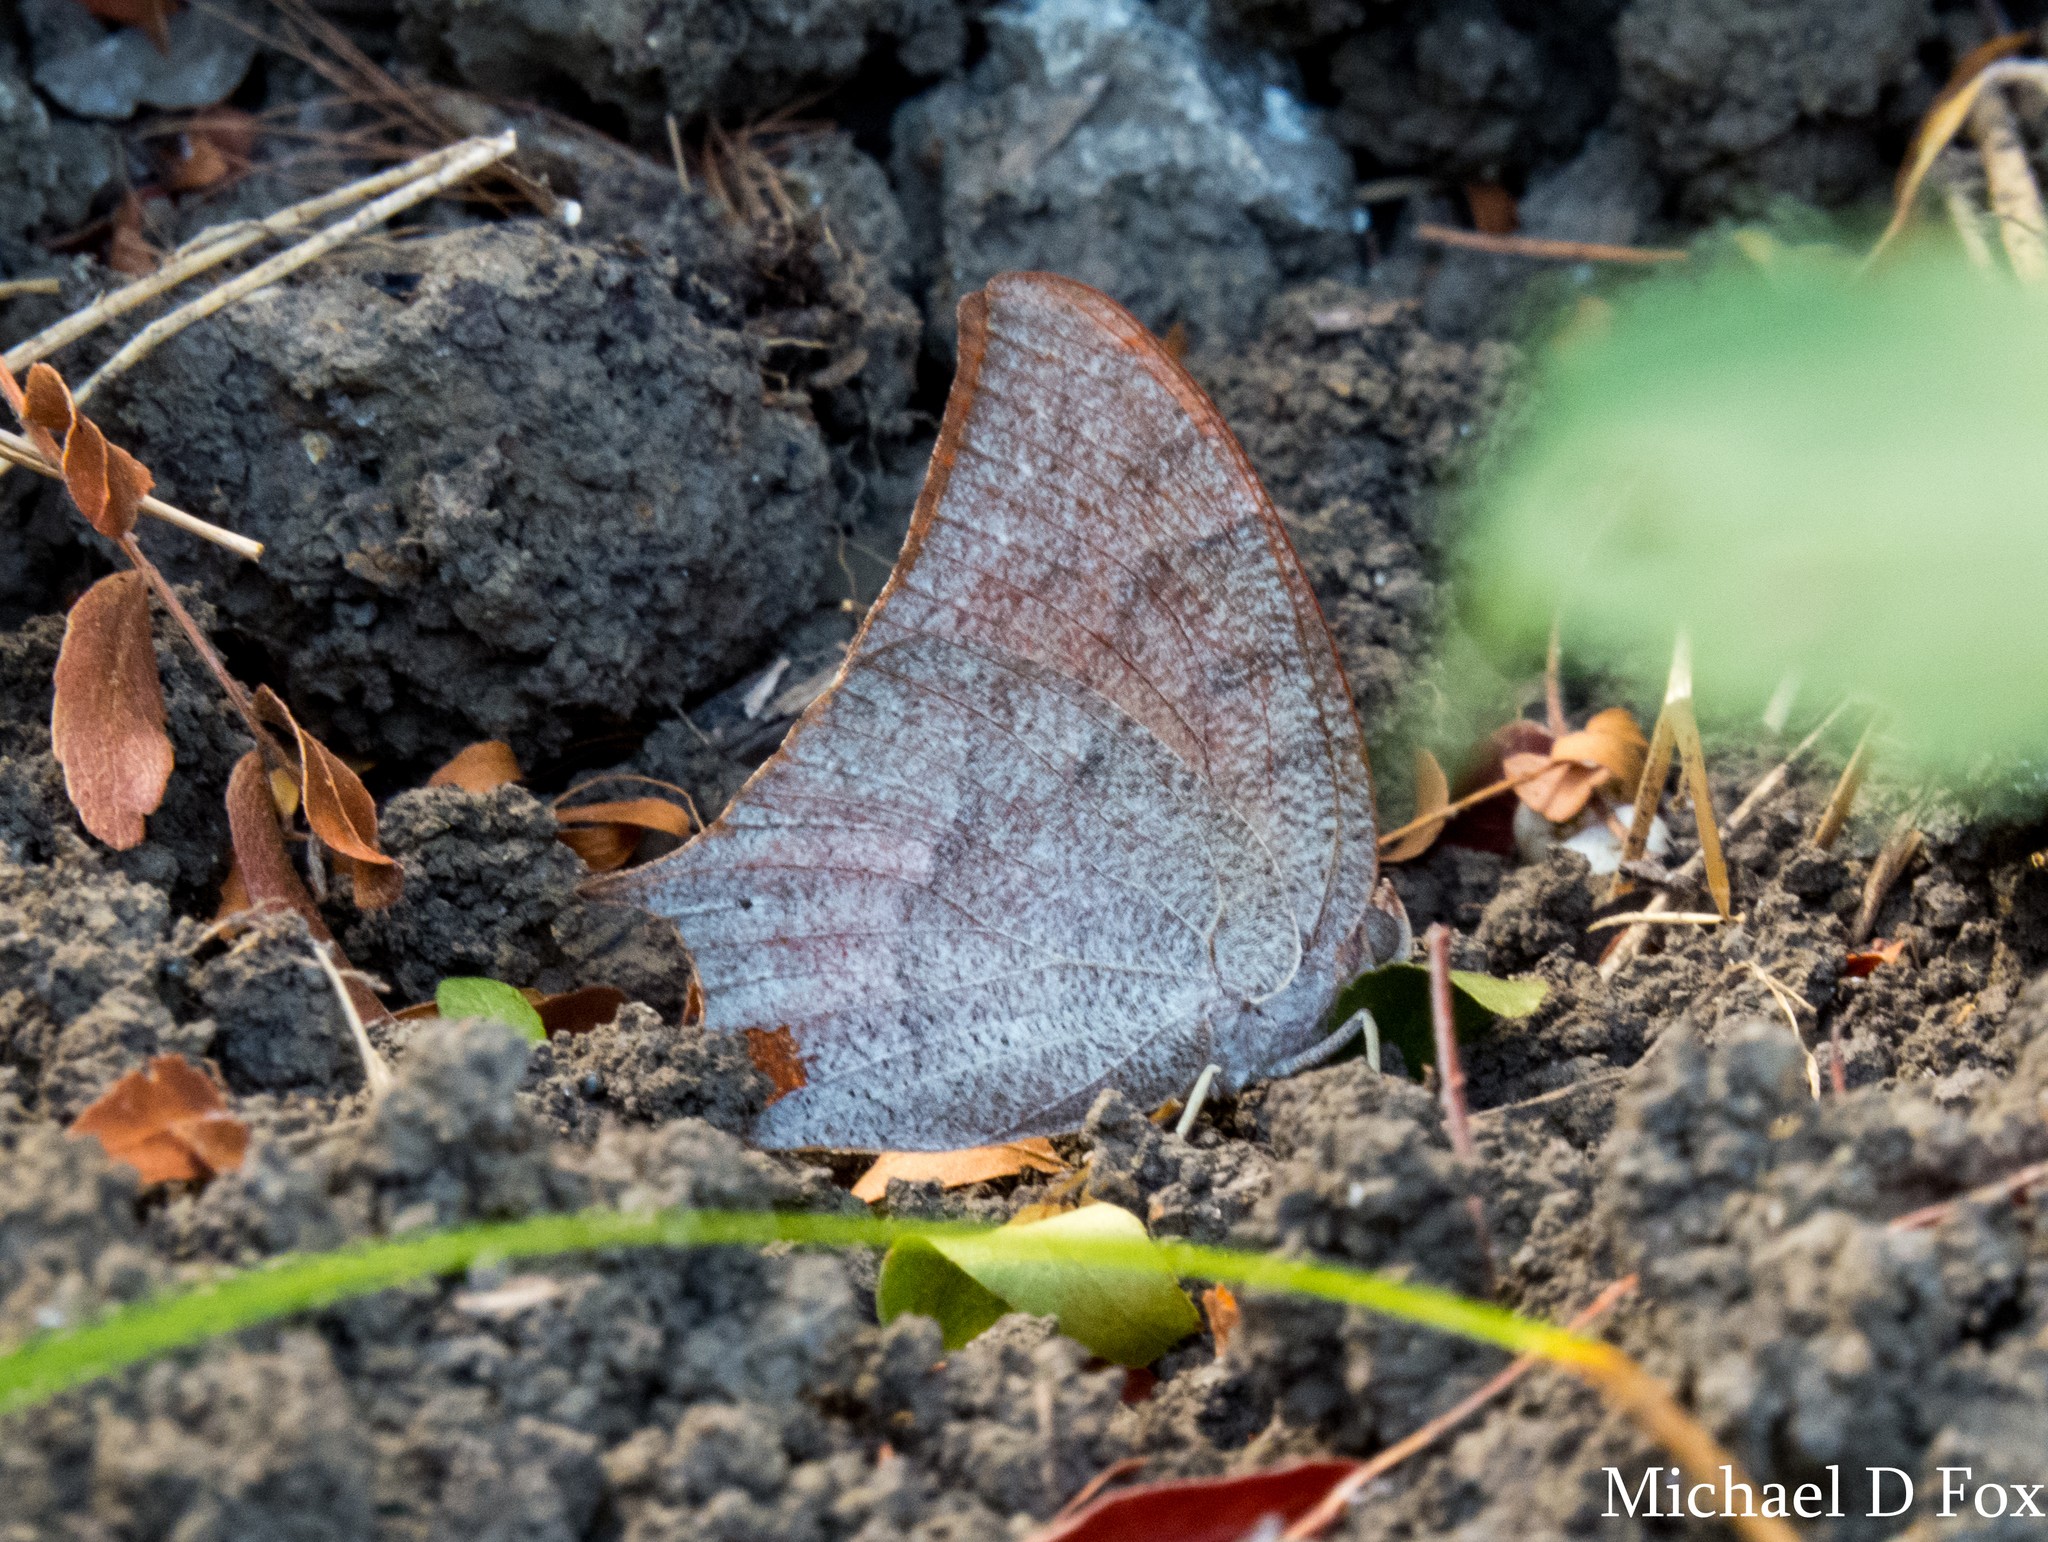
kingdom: Animalia
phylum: Arthropoda
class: Insecta
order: Lepidoptera
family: Nymphalidae
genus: Anaea
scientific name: Anaea andria
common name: Goatweed leafwing
